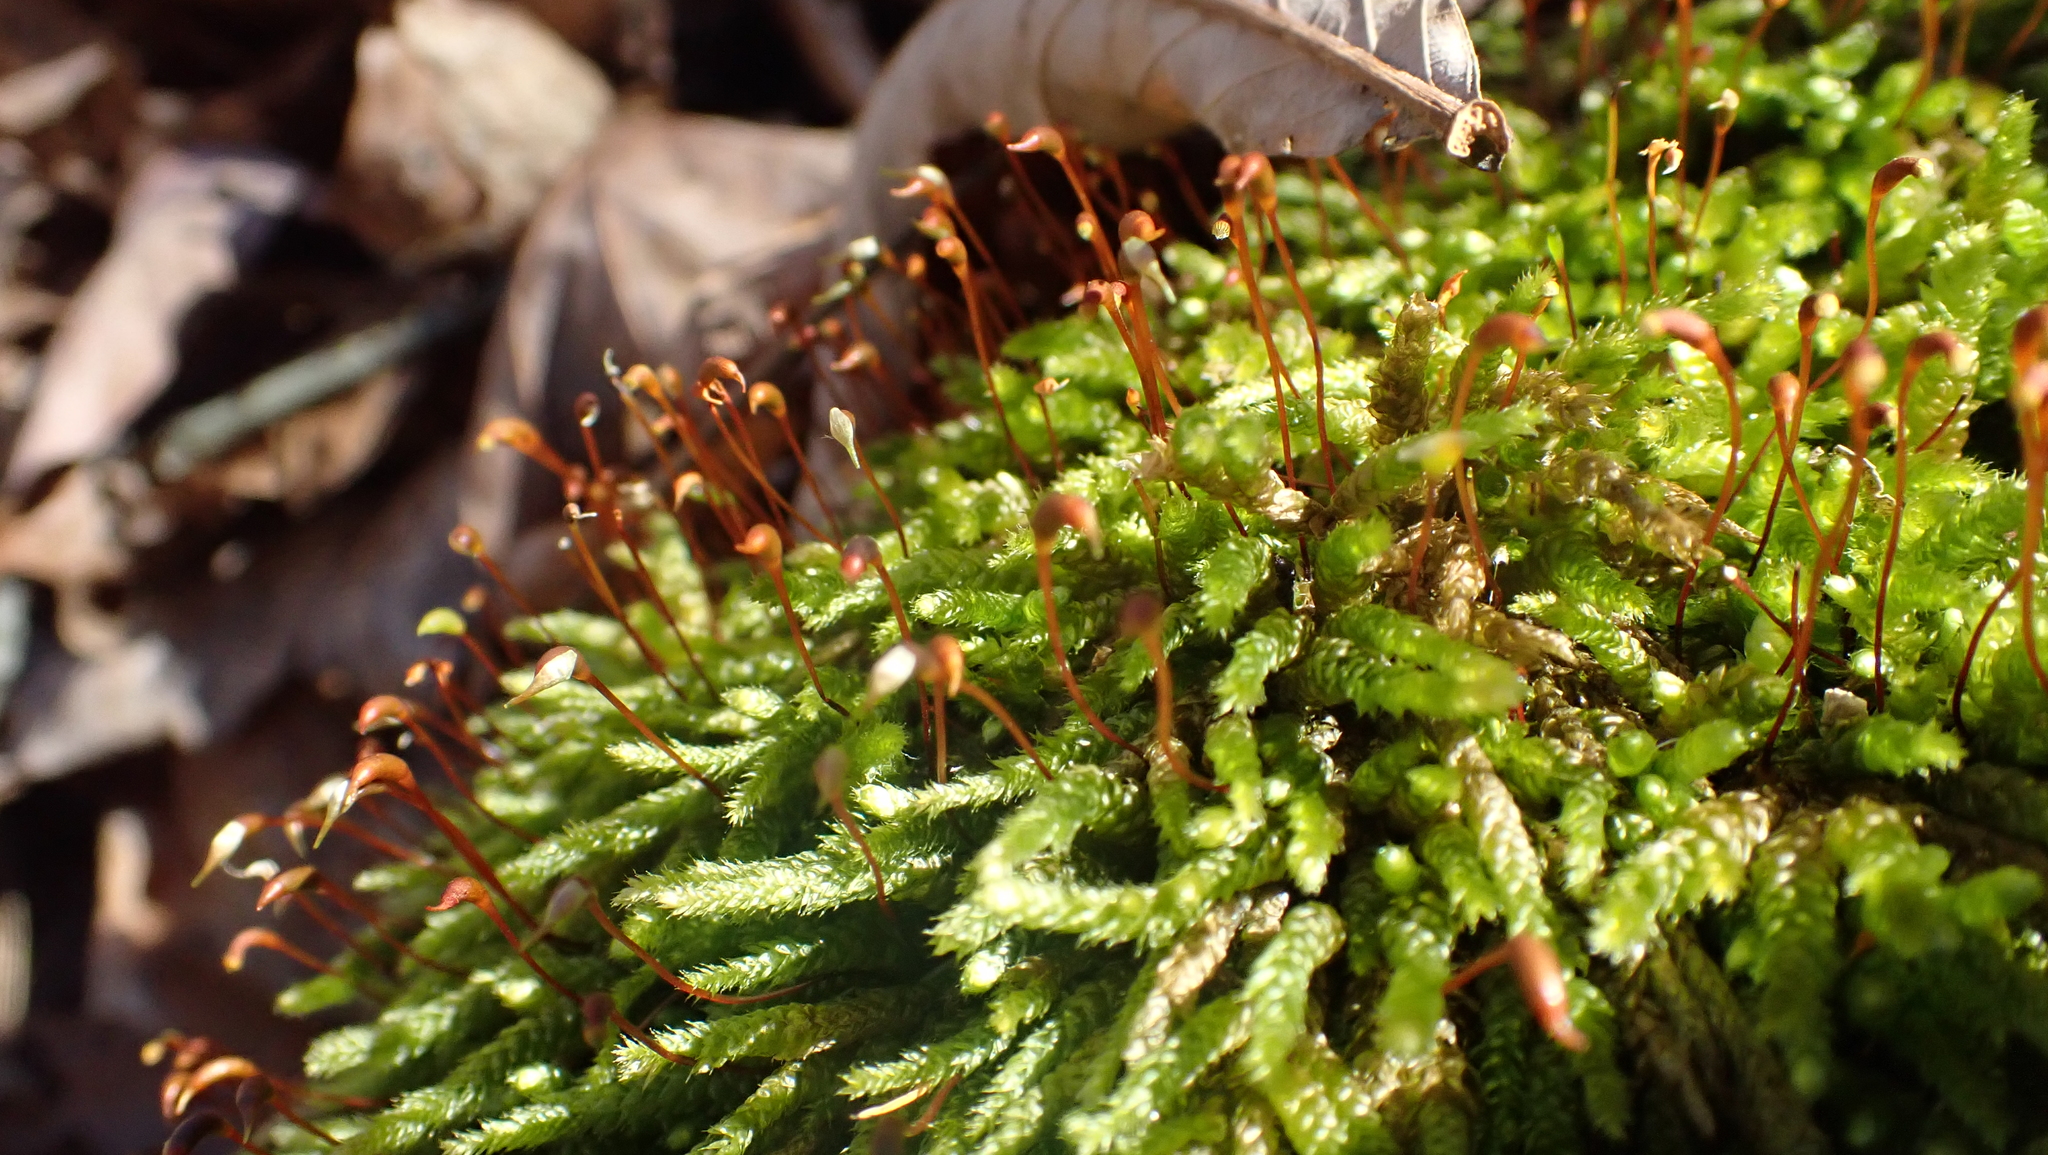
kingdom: Plantae
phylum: Bryophyta
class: Bryopsida
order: Hypnales
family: Brachytheciaceae
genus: Bryoandersonia
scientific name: Bryoandersonia illecebra
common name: Spoon-leaved moss
